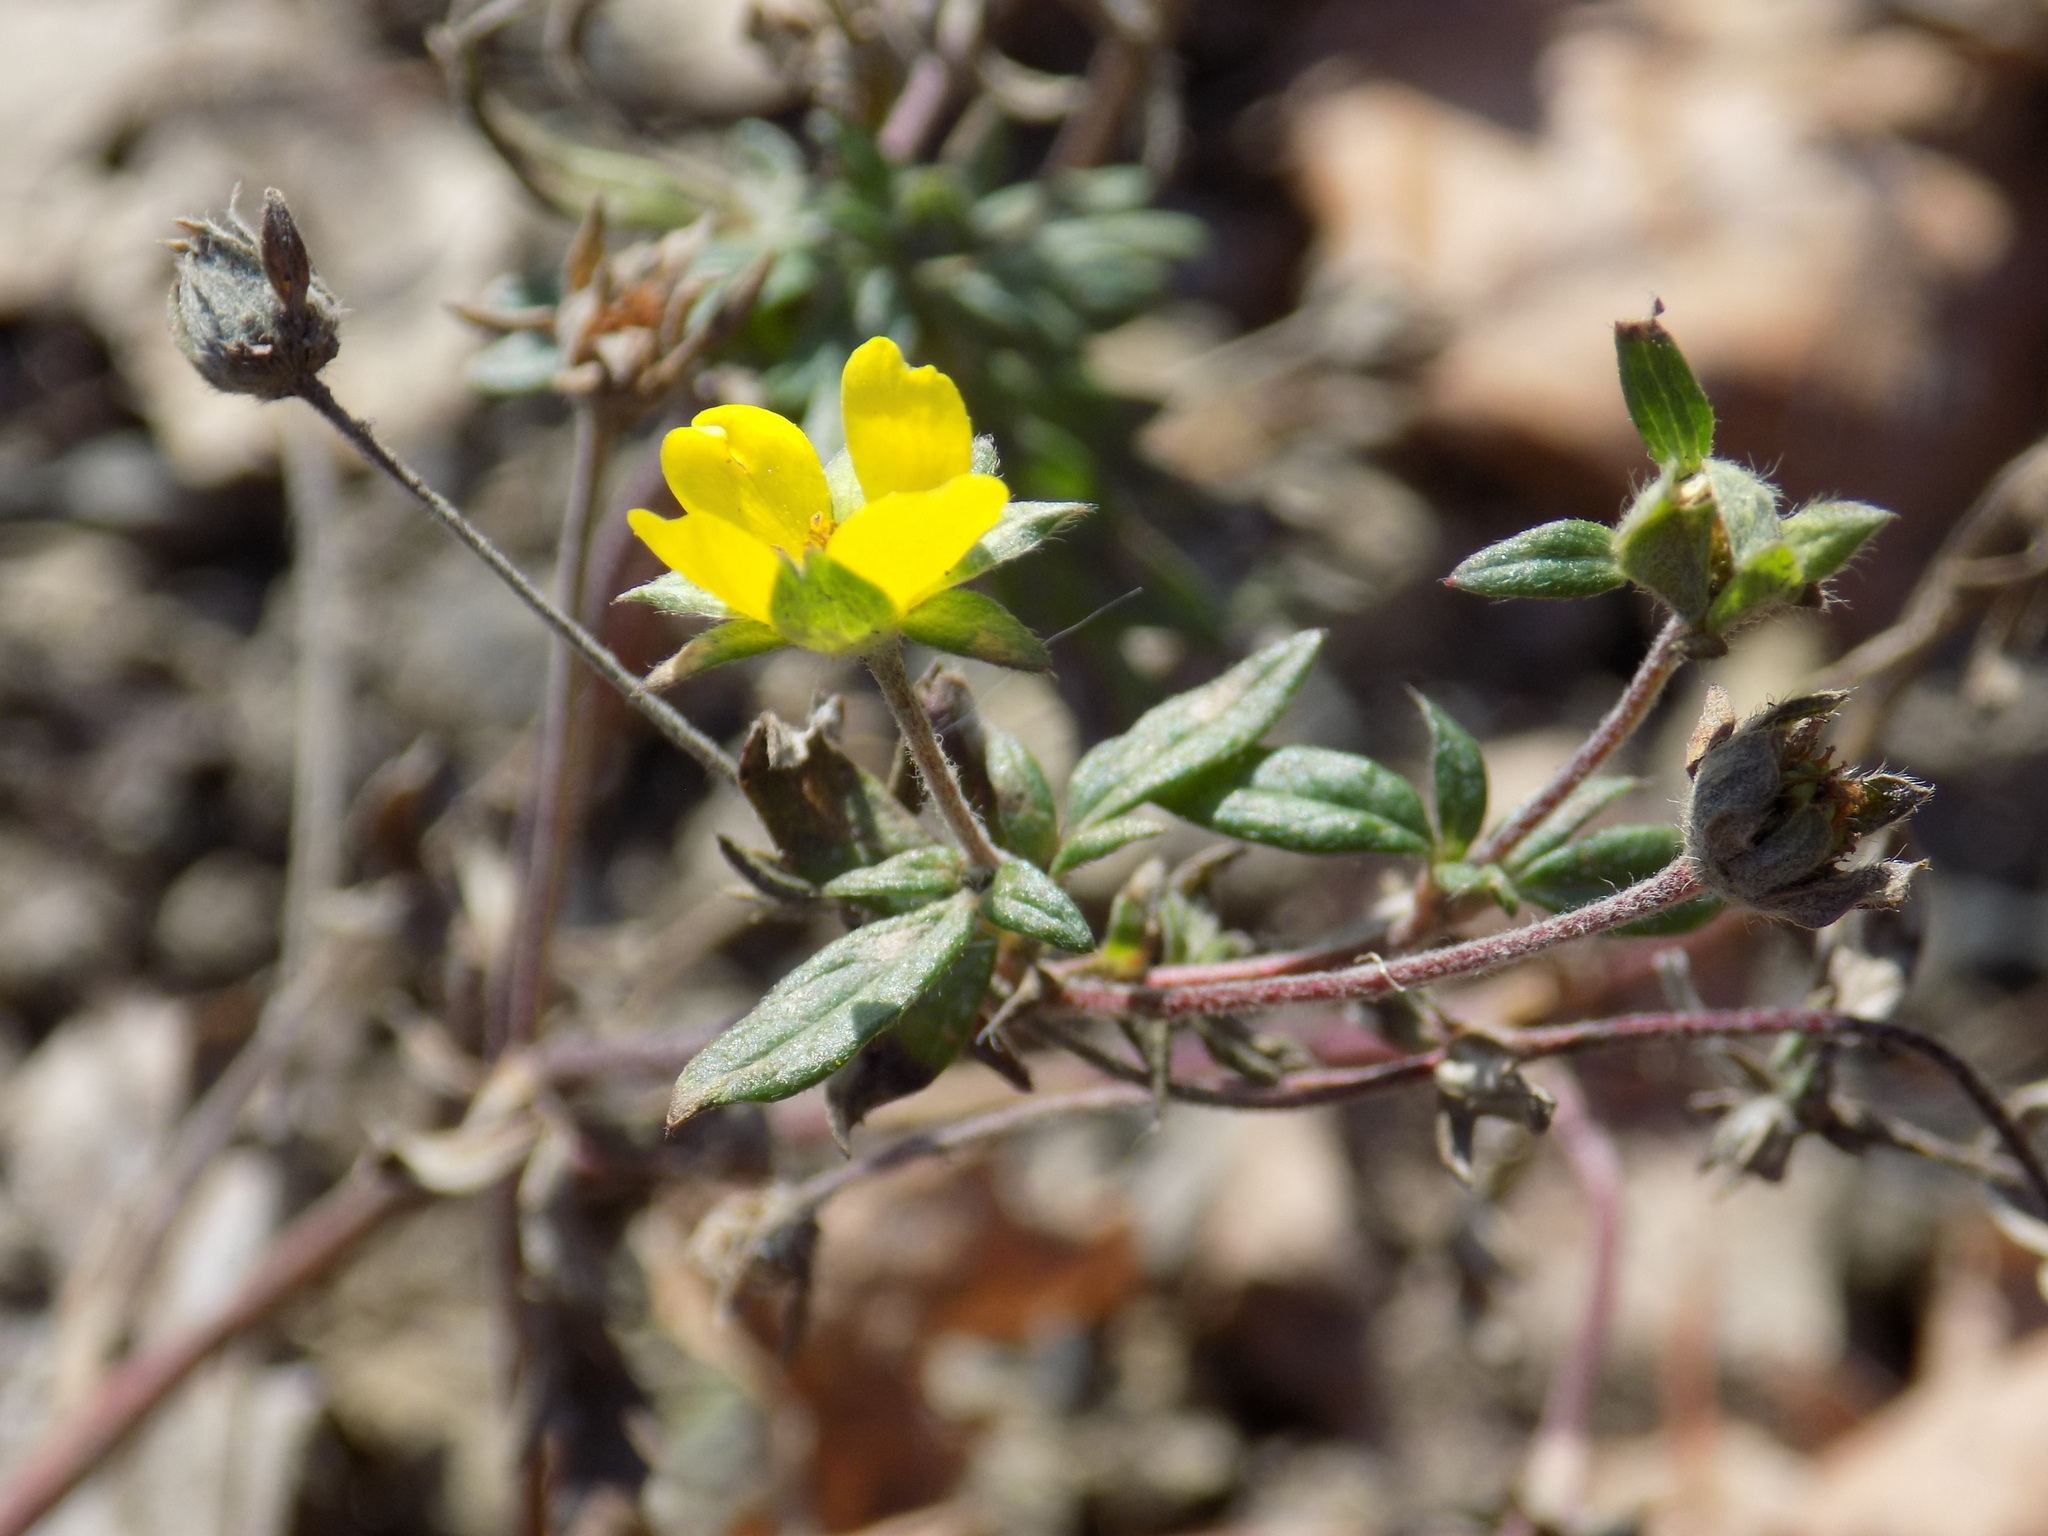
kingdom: Plantae
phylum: Tracheophyta
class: Magnoliopsida
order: Rosales
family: Rosaceae
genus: Potentilla
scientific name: Potentilla argentea
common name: Hoary cinquefoil
